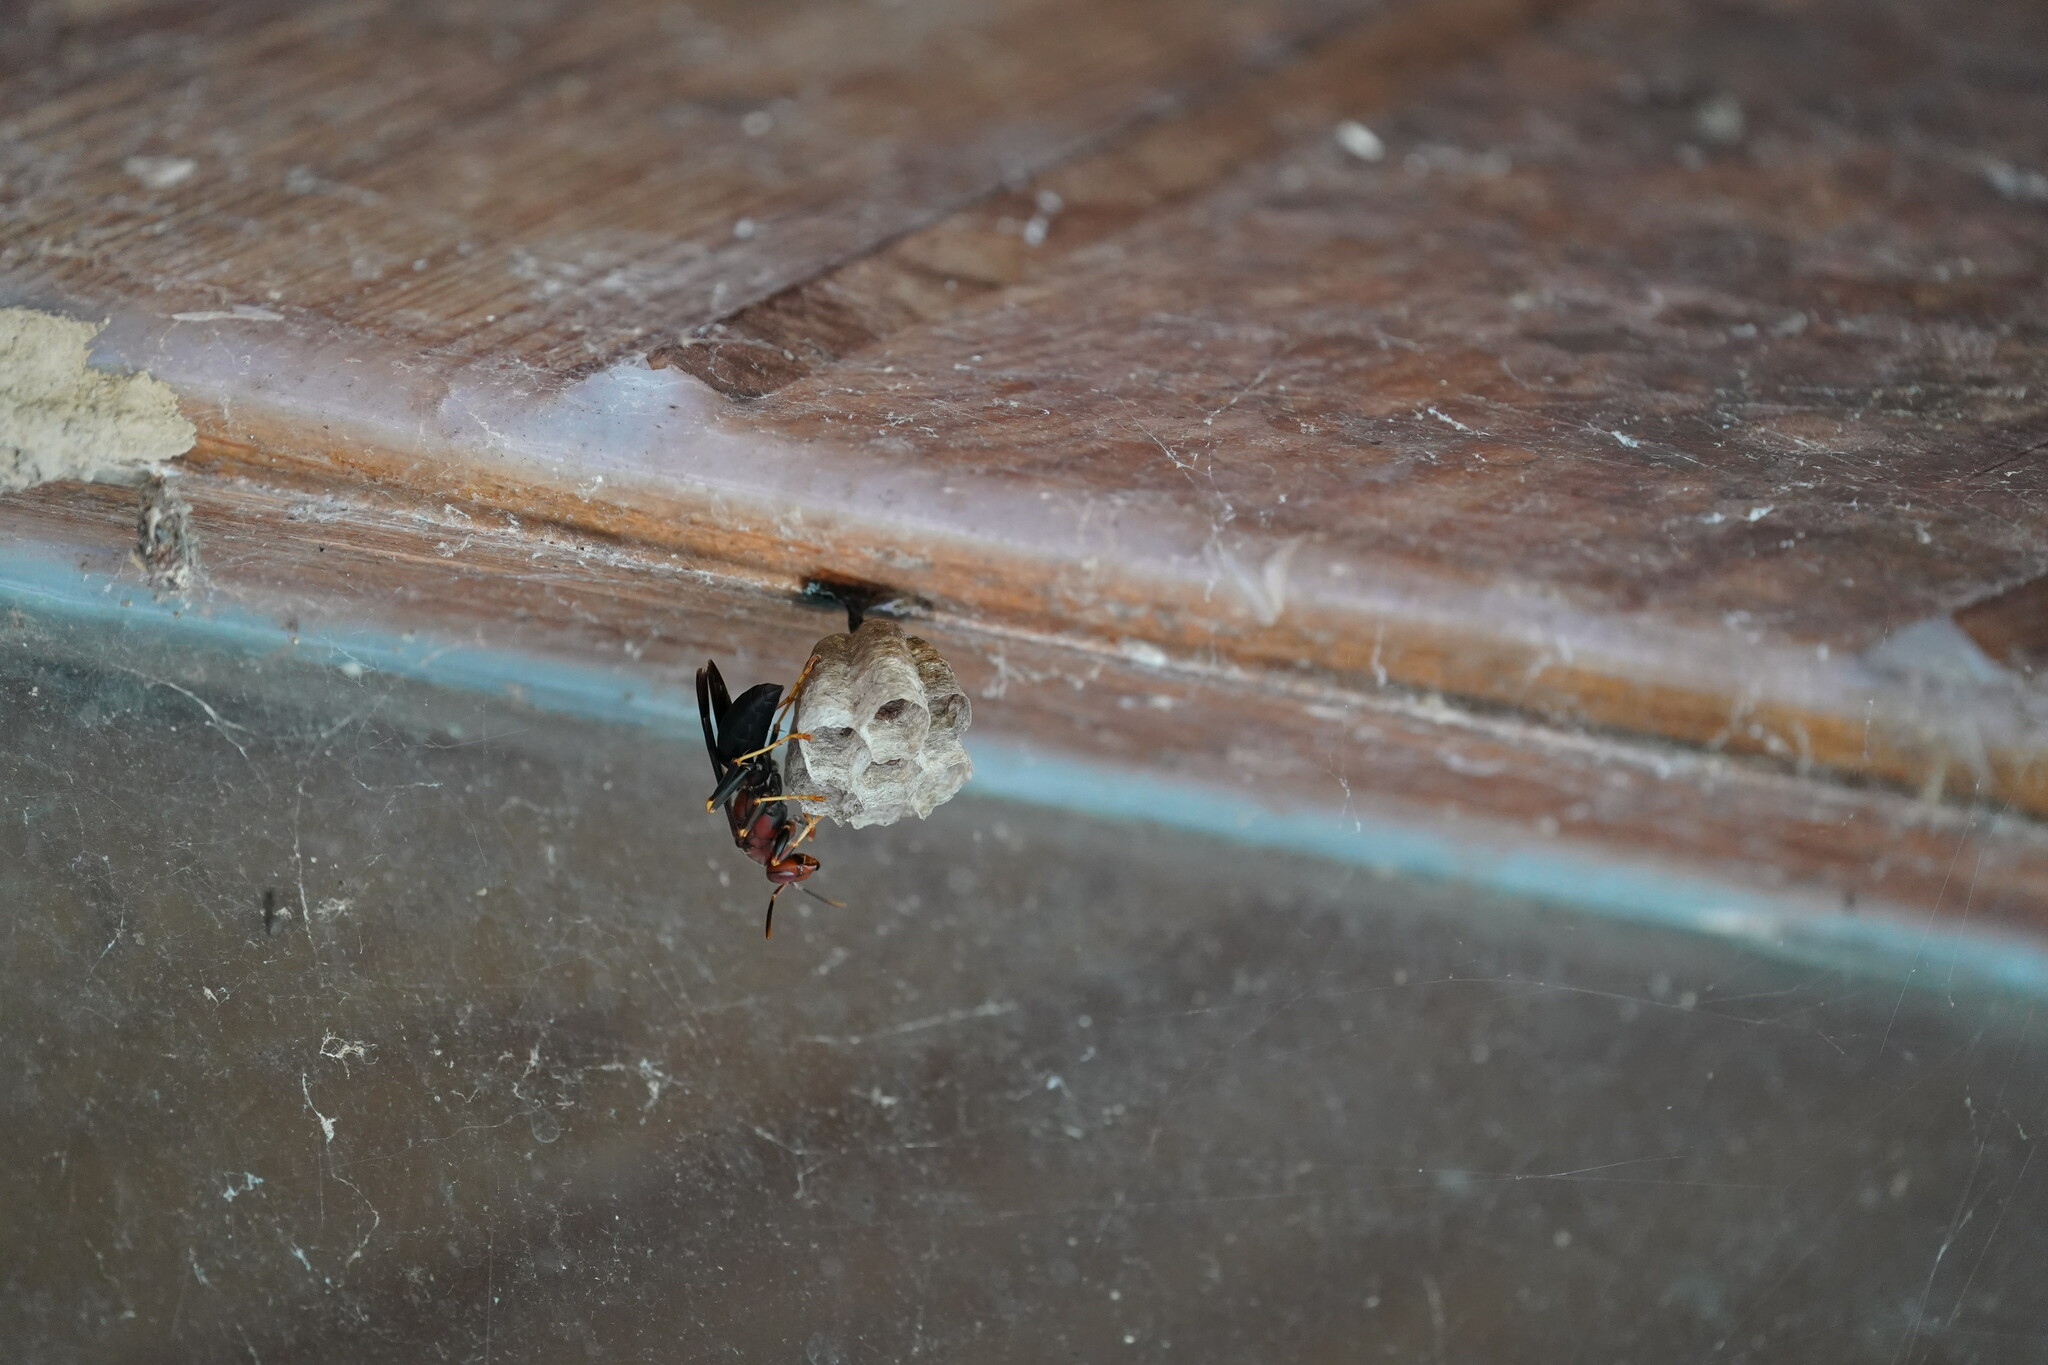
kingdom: Animalia
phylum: Arthropoda
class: Insecta
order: Hymenoptera
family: Eumenidae
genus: Polistes
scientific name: Polistes metricus
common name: Metric paper wasp
